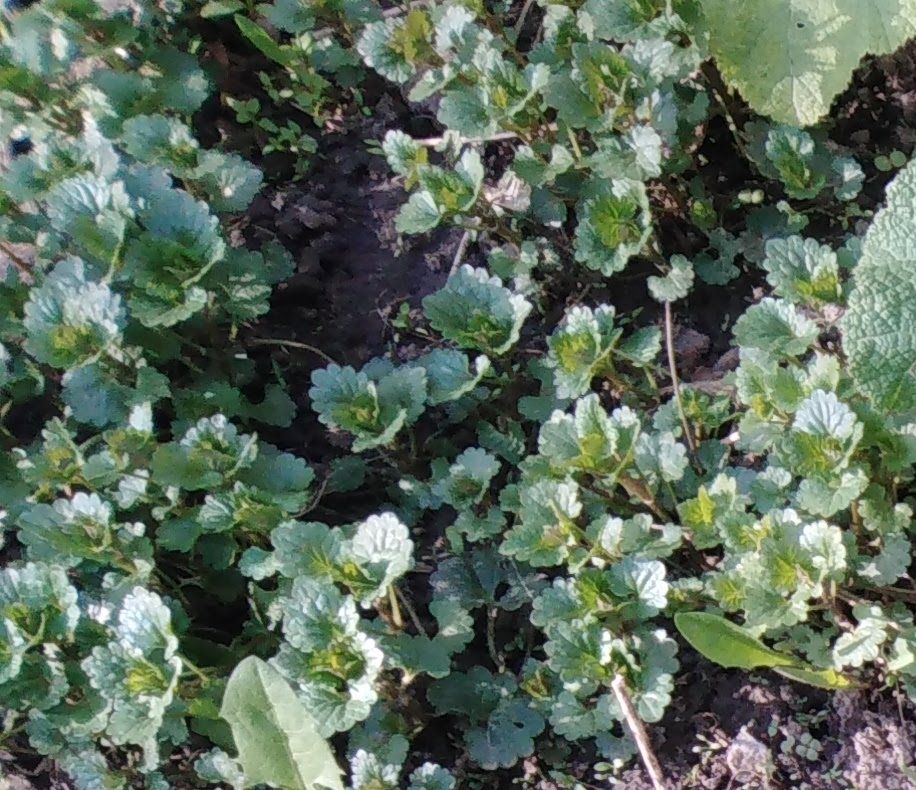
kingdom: Plantae
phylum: Tracheophyta
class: Magnoliopsida
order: Lamiales
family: Lamiaceae
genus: Glechoma
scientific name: Glechoma hederacea
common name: Ground ivy
